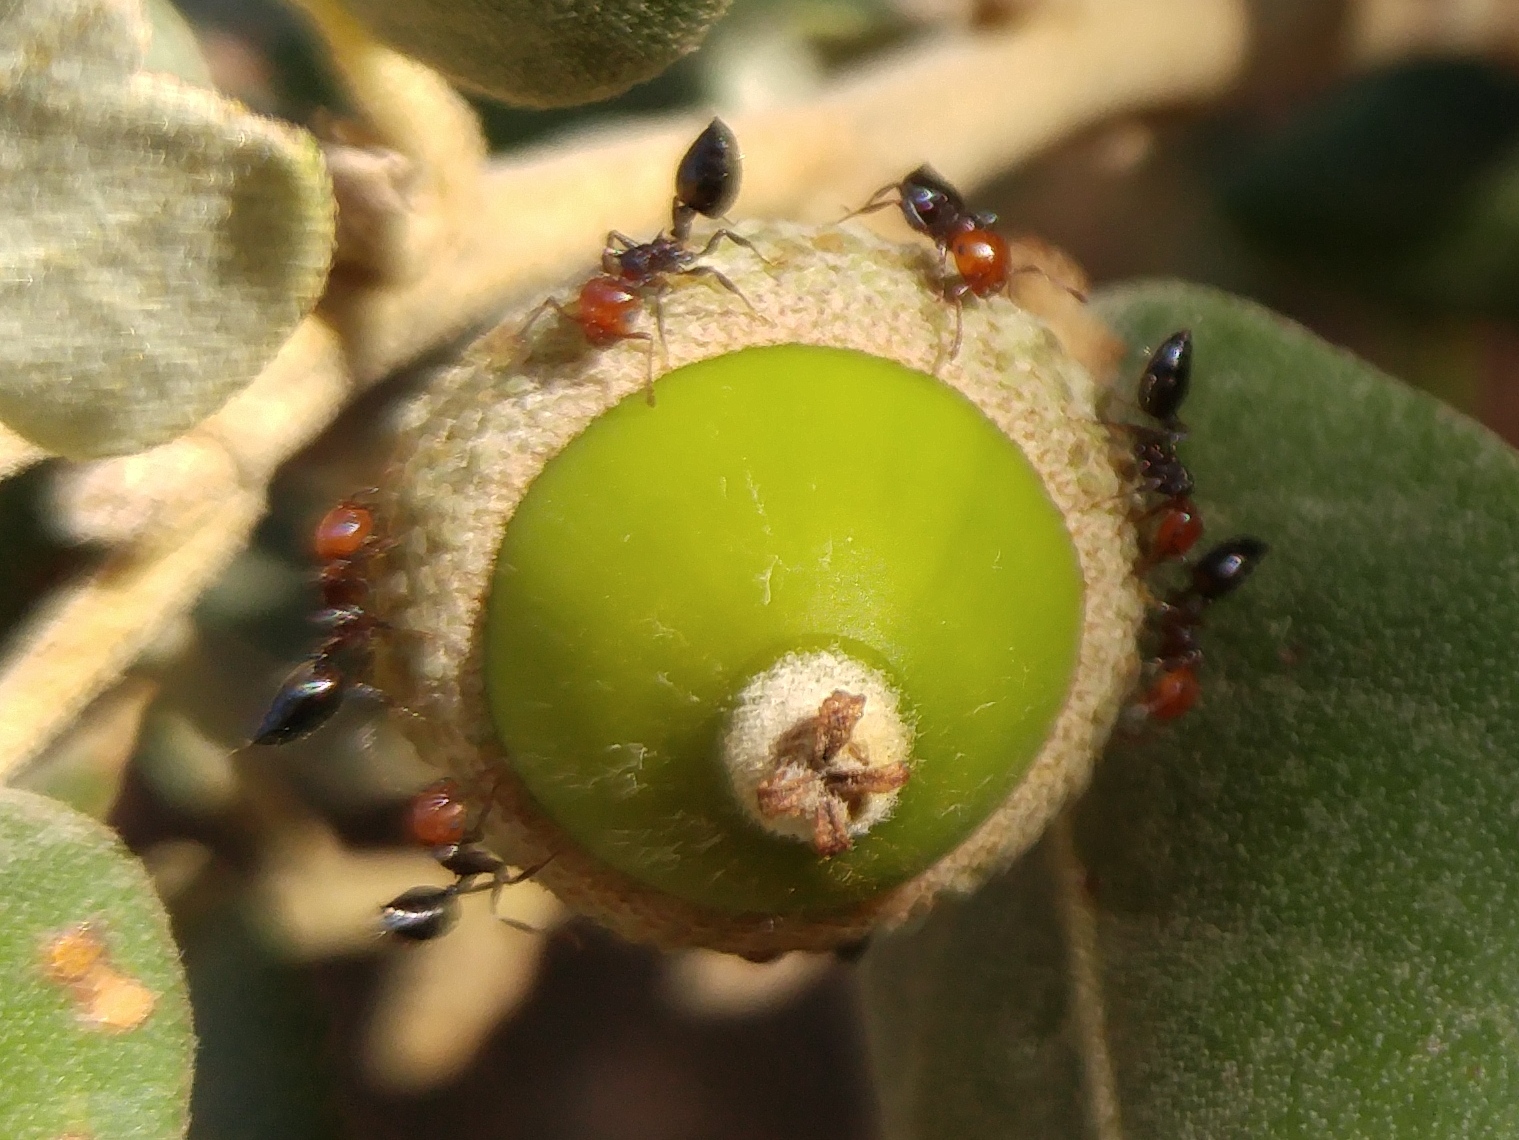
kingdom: Animalia
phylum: Arthropoda
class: Insecta
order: Hymenoptera
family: Formicidae
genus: Crematogaster
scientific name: Crematogaster scutellaris
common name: Fourmi du liège
